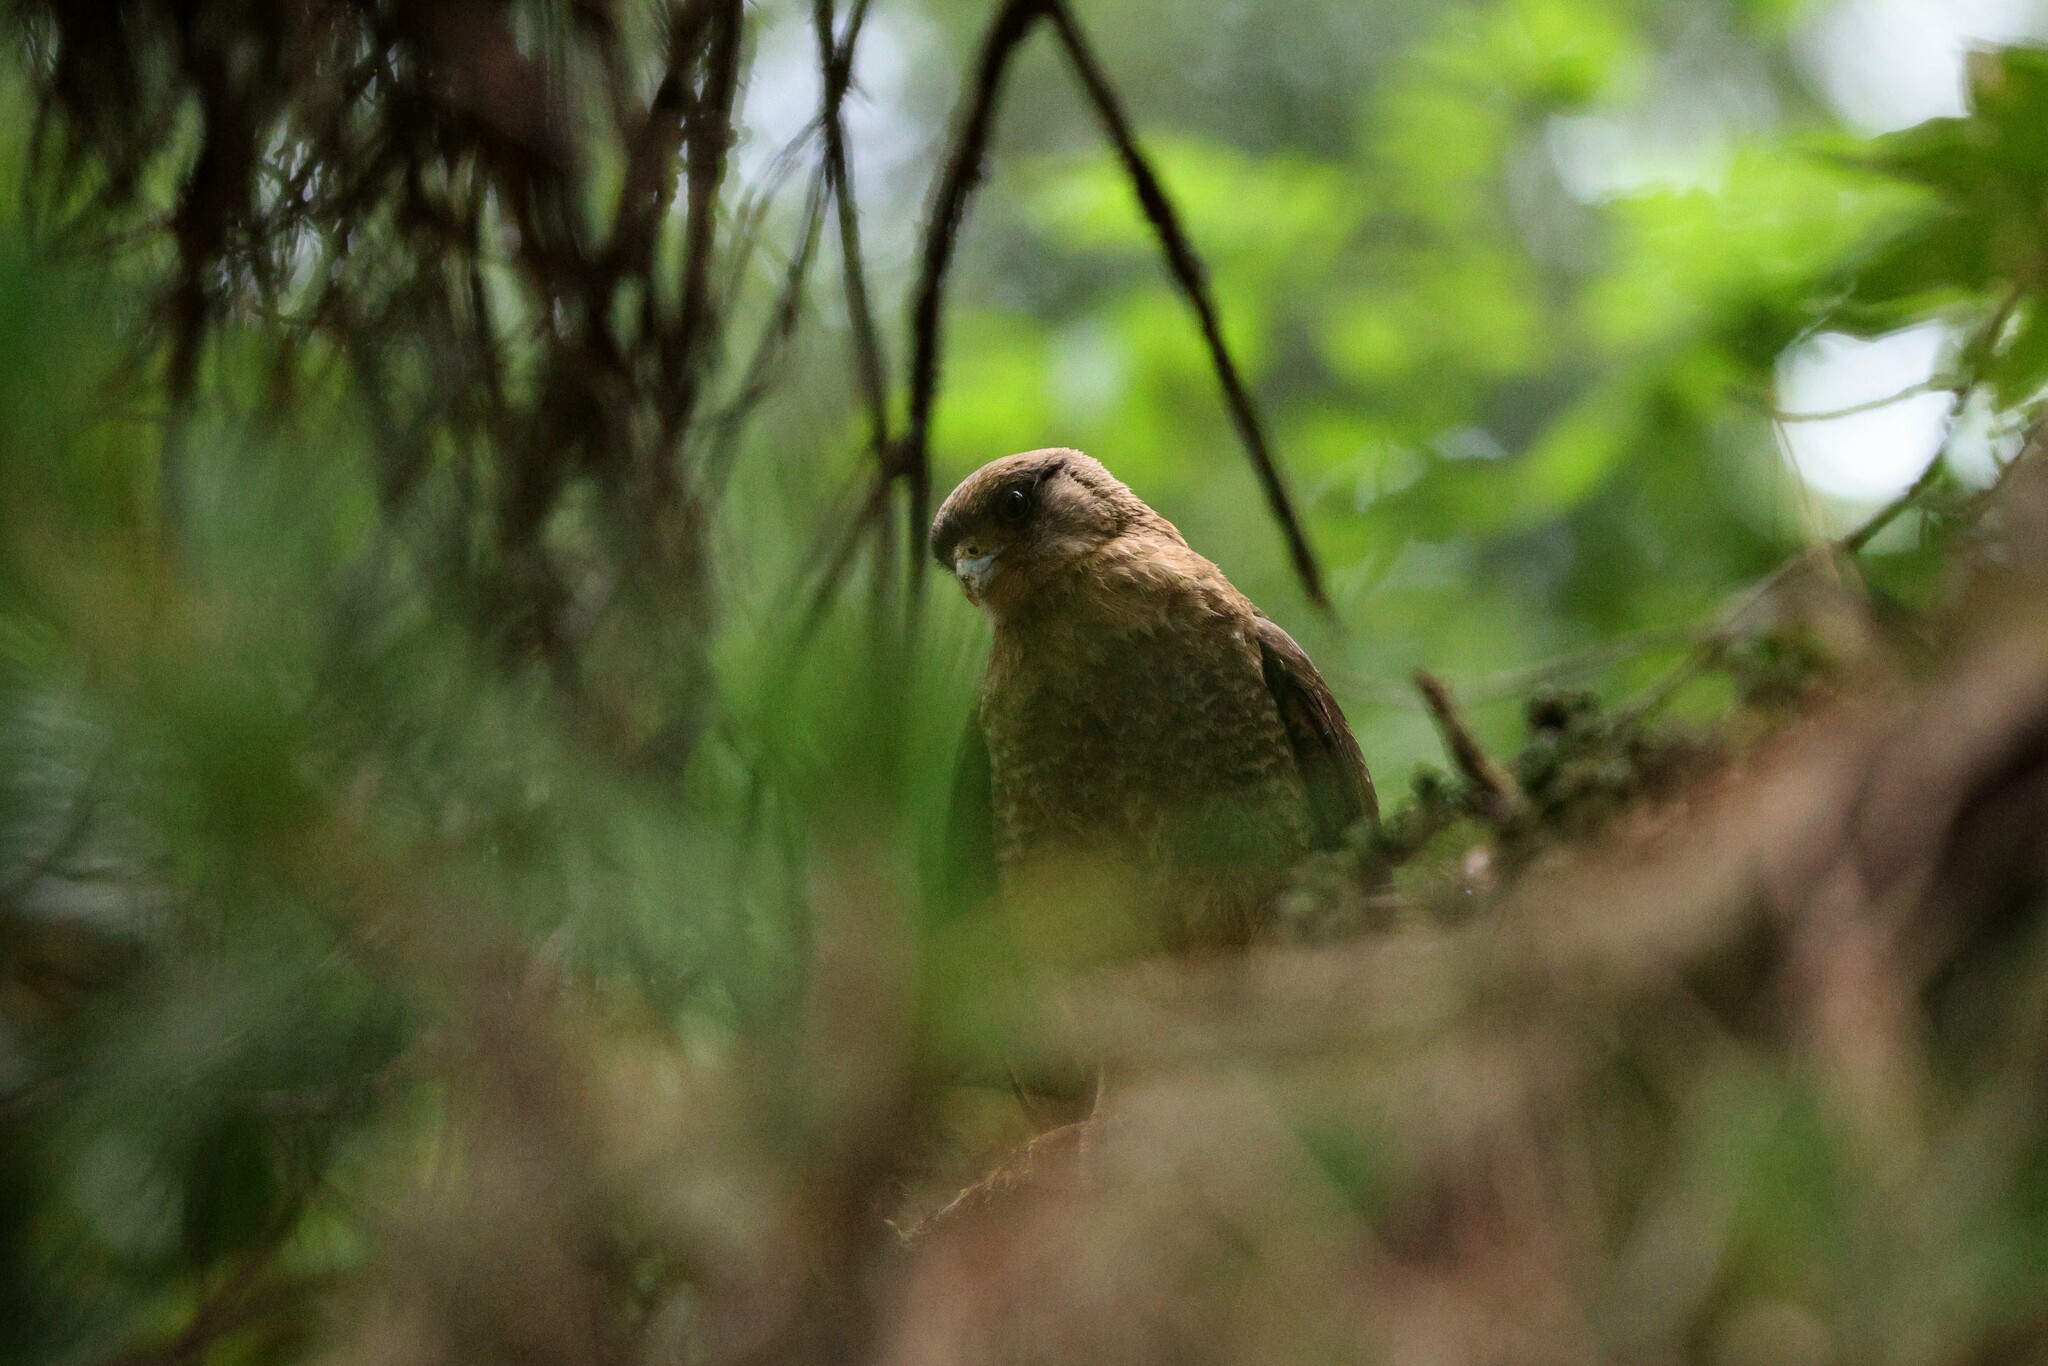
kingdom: Animalia
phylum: Chordata
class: Aves
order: Falconiformes
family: Falconidae
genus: Daptrius
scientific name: Daptrius
